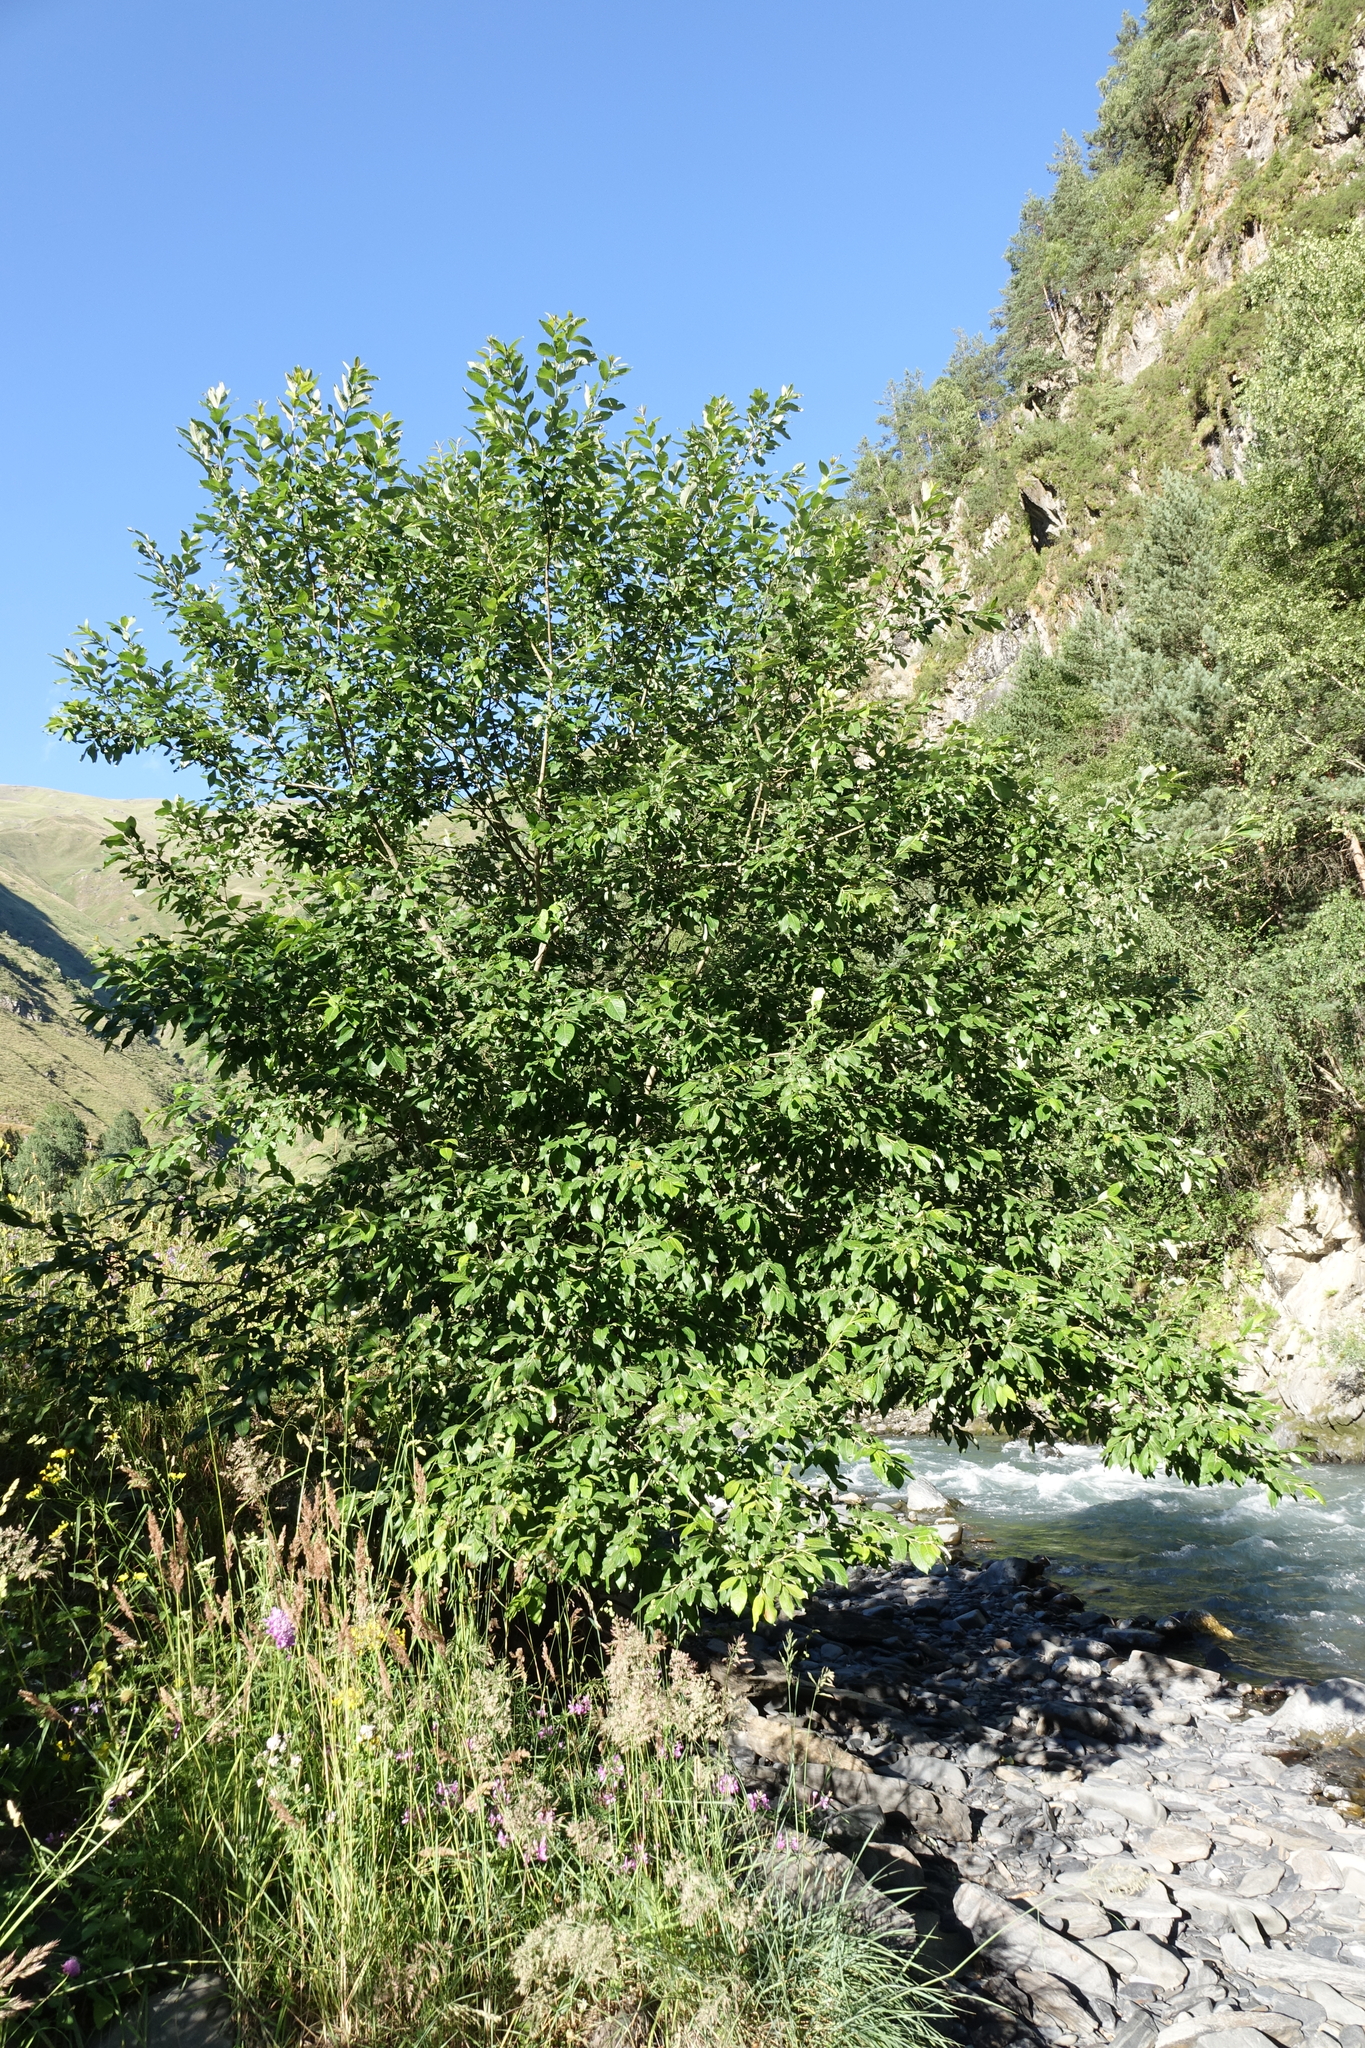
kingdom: Plantae
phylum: Tracheophyta
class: Magnoliopsida
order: Malpighiales
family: Salicaceae
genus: Salix
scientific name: Salix caprea
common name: Goat willow
